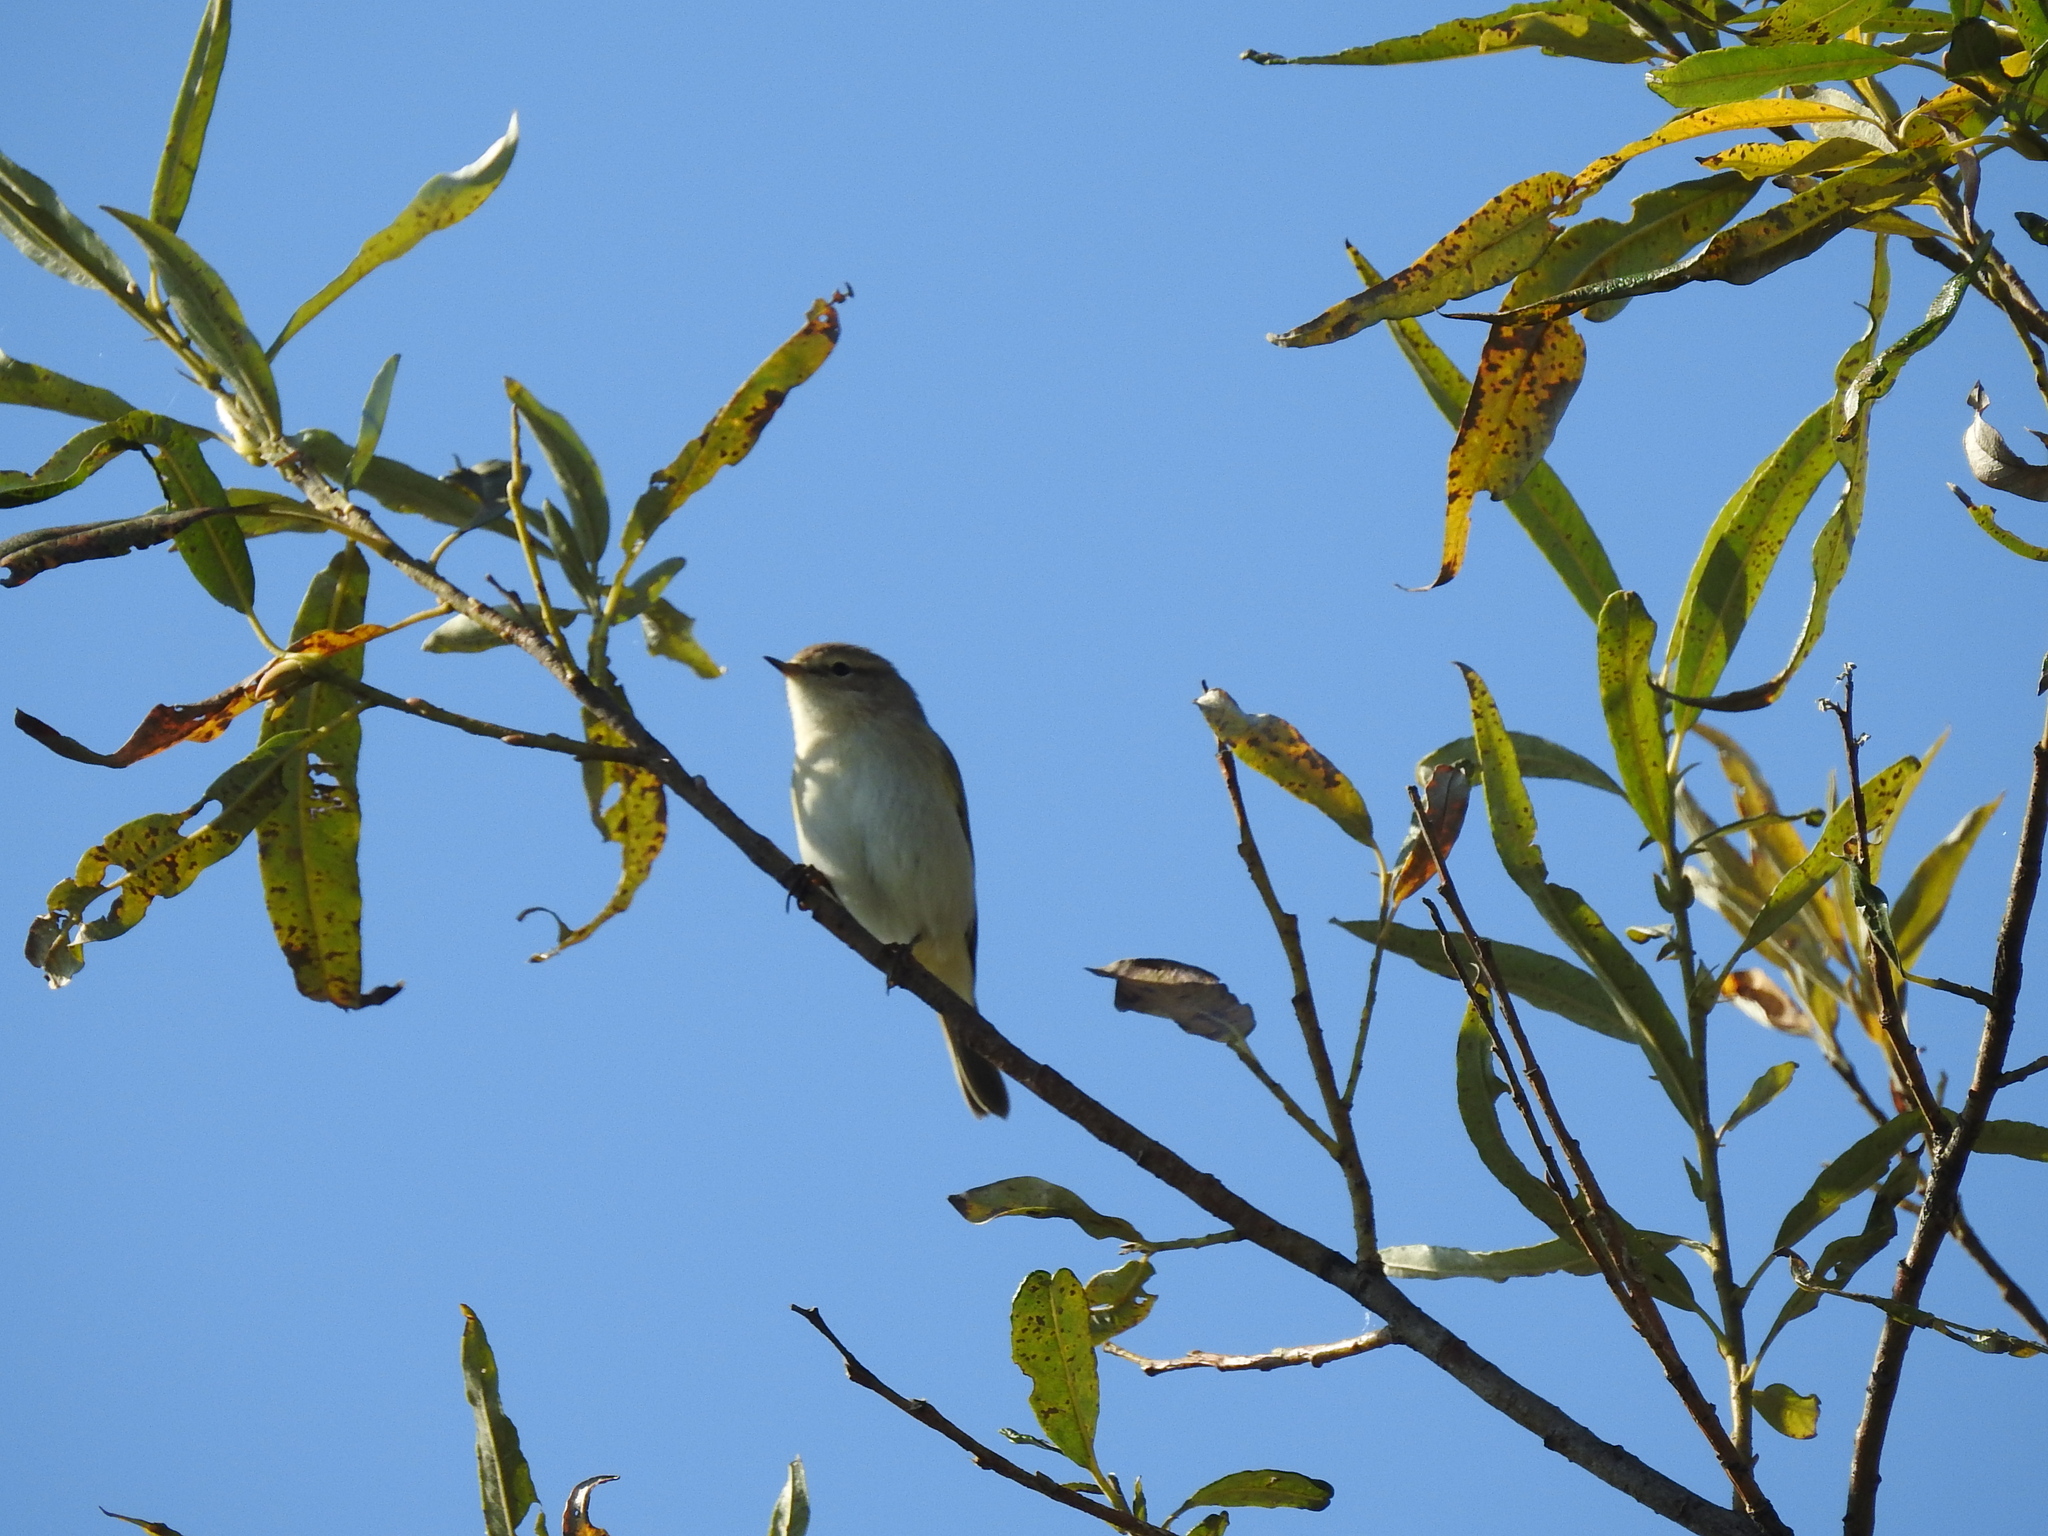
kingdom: Animalia
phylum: Chordata
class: Aves
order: Passeriformes
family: Phylloscopidae
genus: Phylloscopus
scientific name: Phylloscopus collybita
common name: Common chiffchaff
